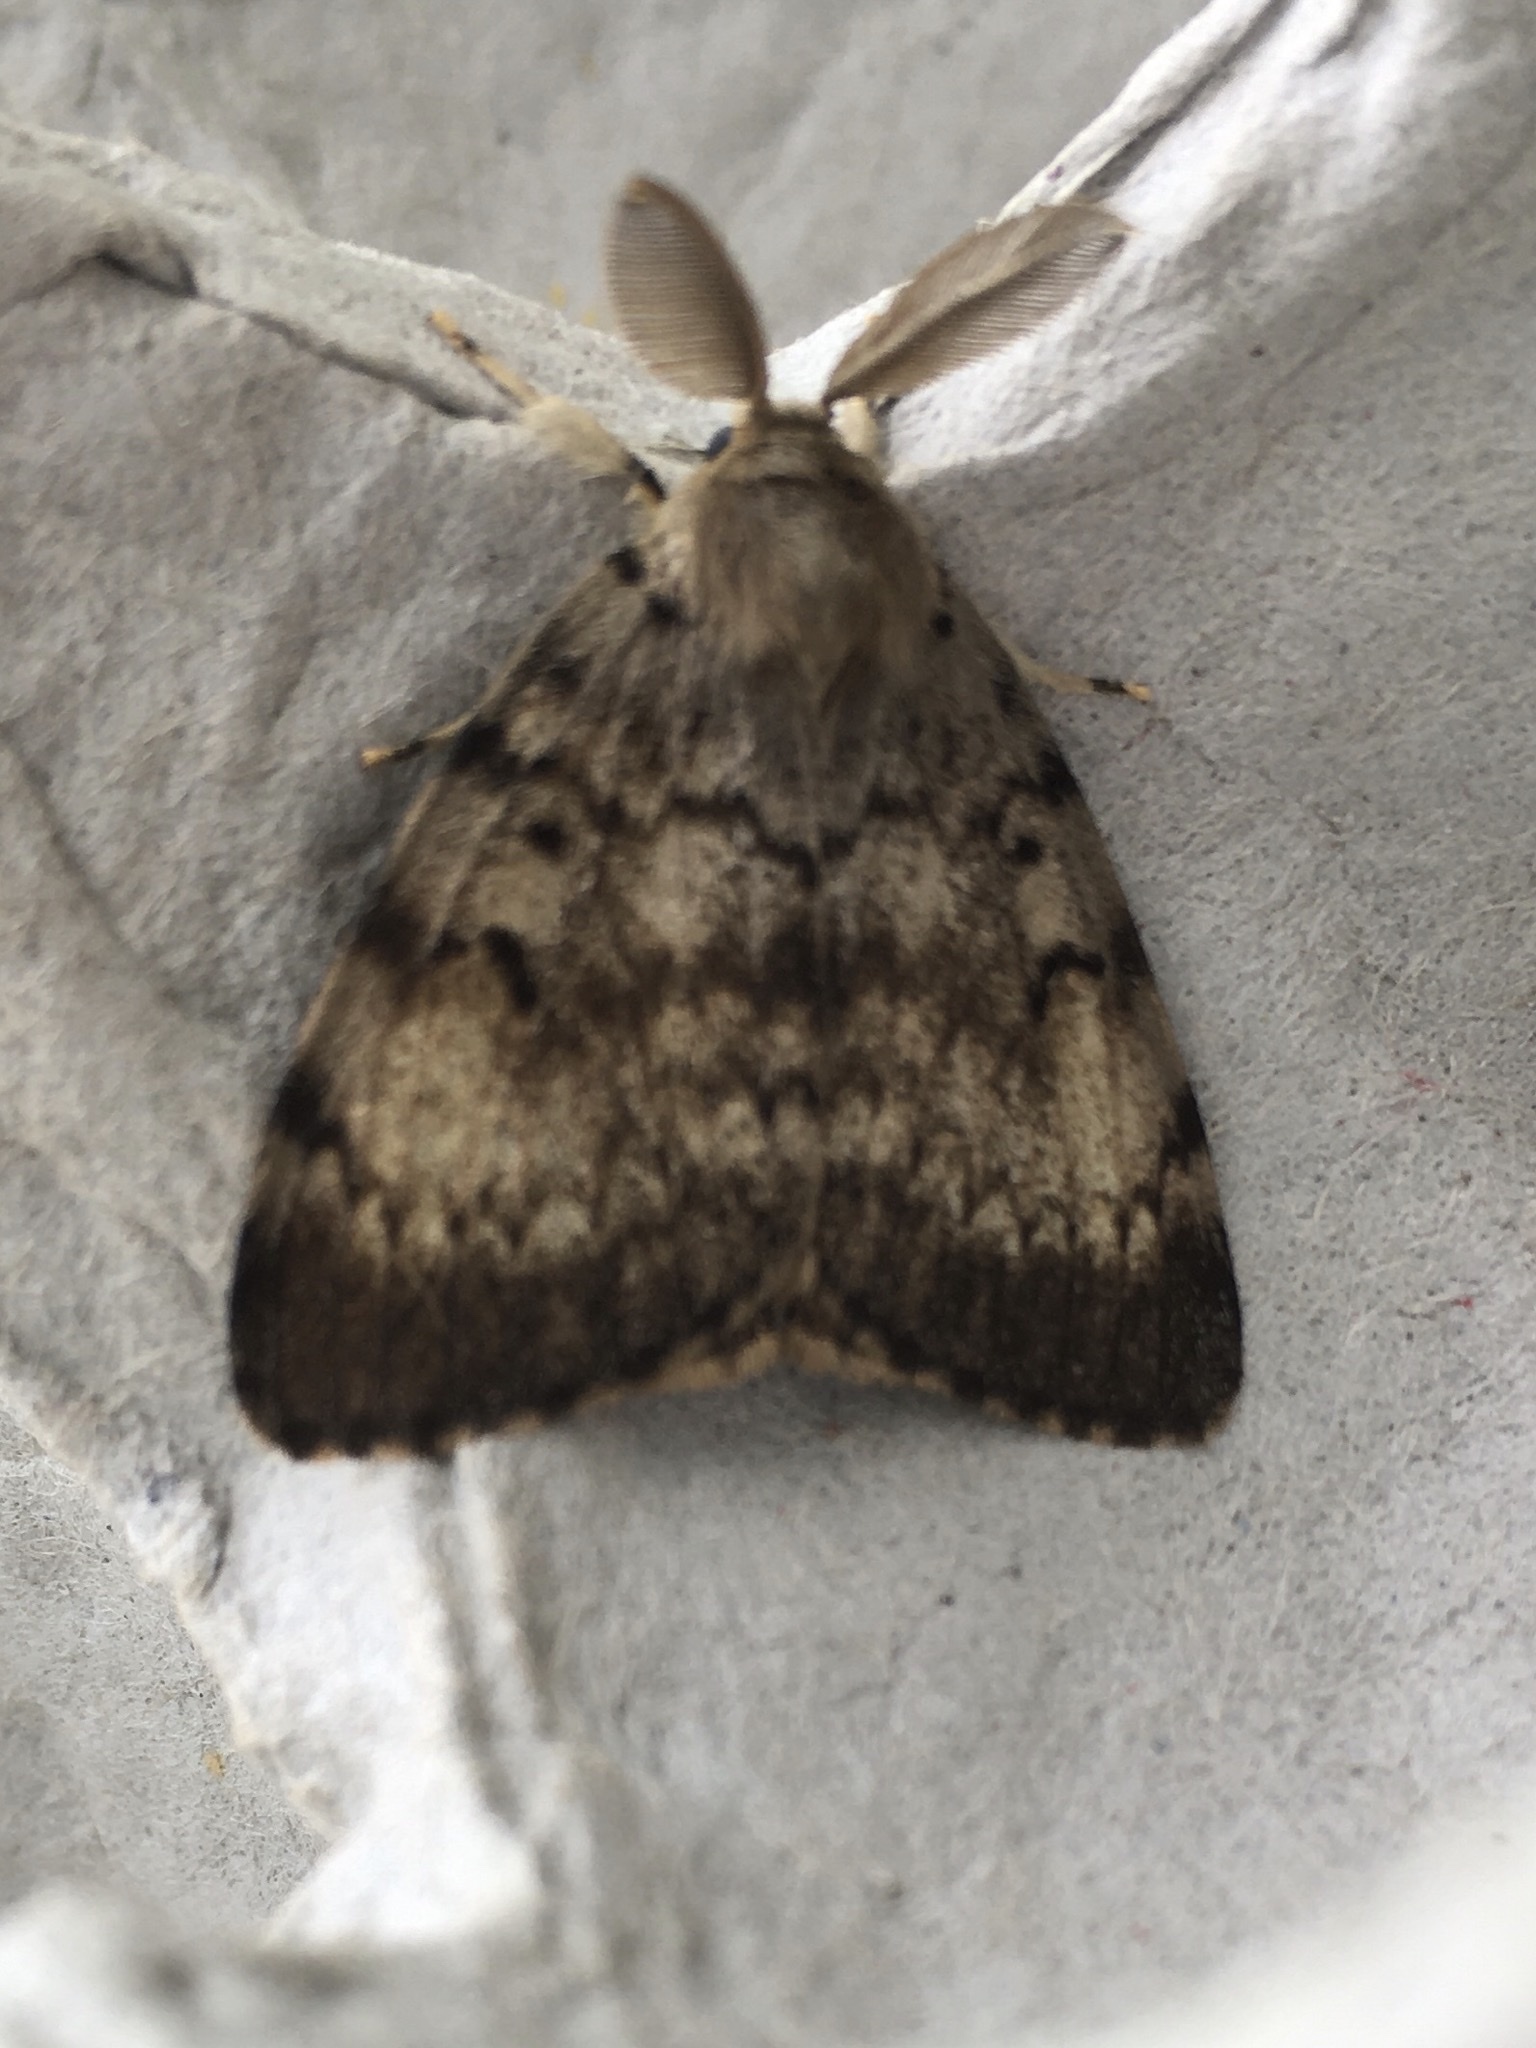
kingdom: Animalia
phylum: Arthropoda
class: Insecta
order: Lepidoptera
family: Erebidae
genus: Lymantria
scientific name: Lymantria dispar
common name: Gypsy moth
